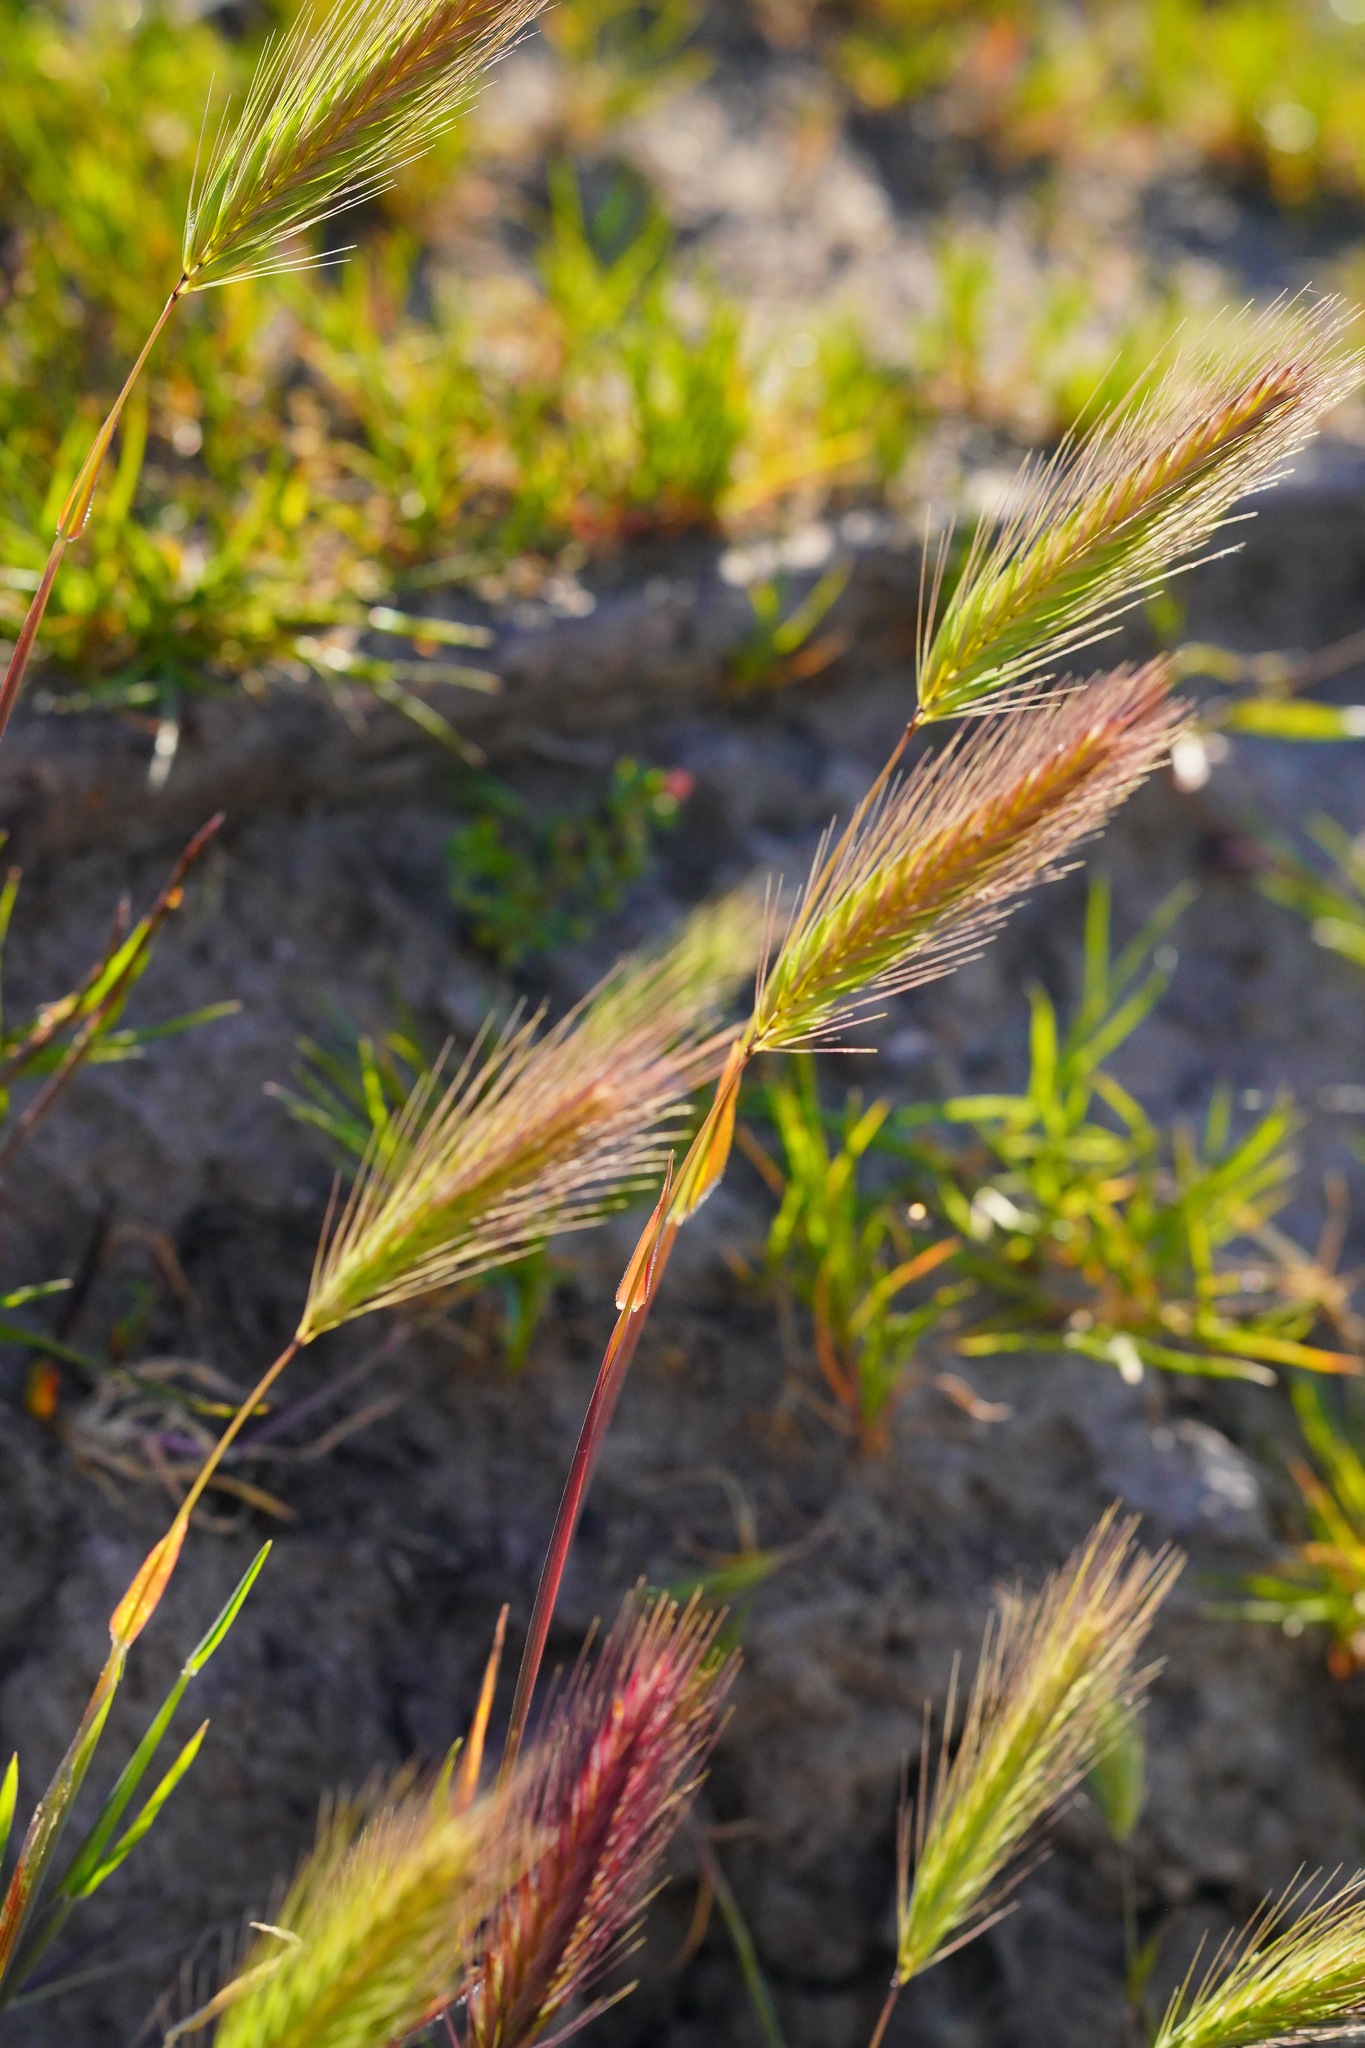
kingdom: Plantae
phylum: Tracheophyta
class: Liliopsida
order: Poales
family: Poaceae
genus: Hordeum
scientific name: Hordeum murinum
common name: Wall barley
